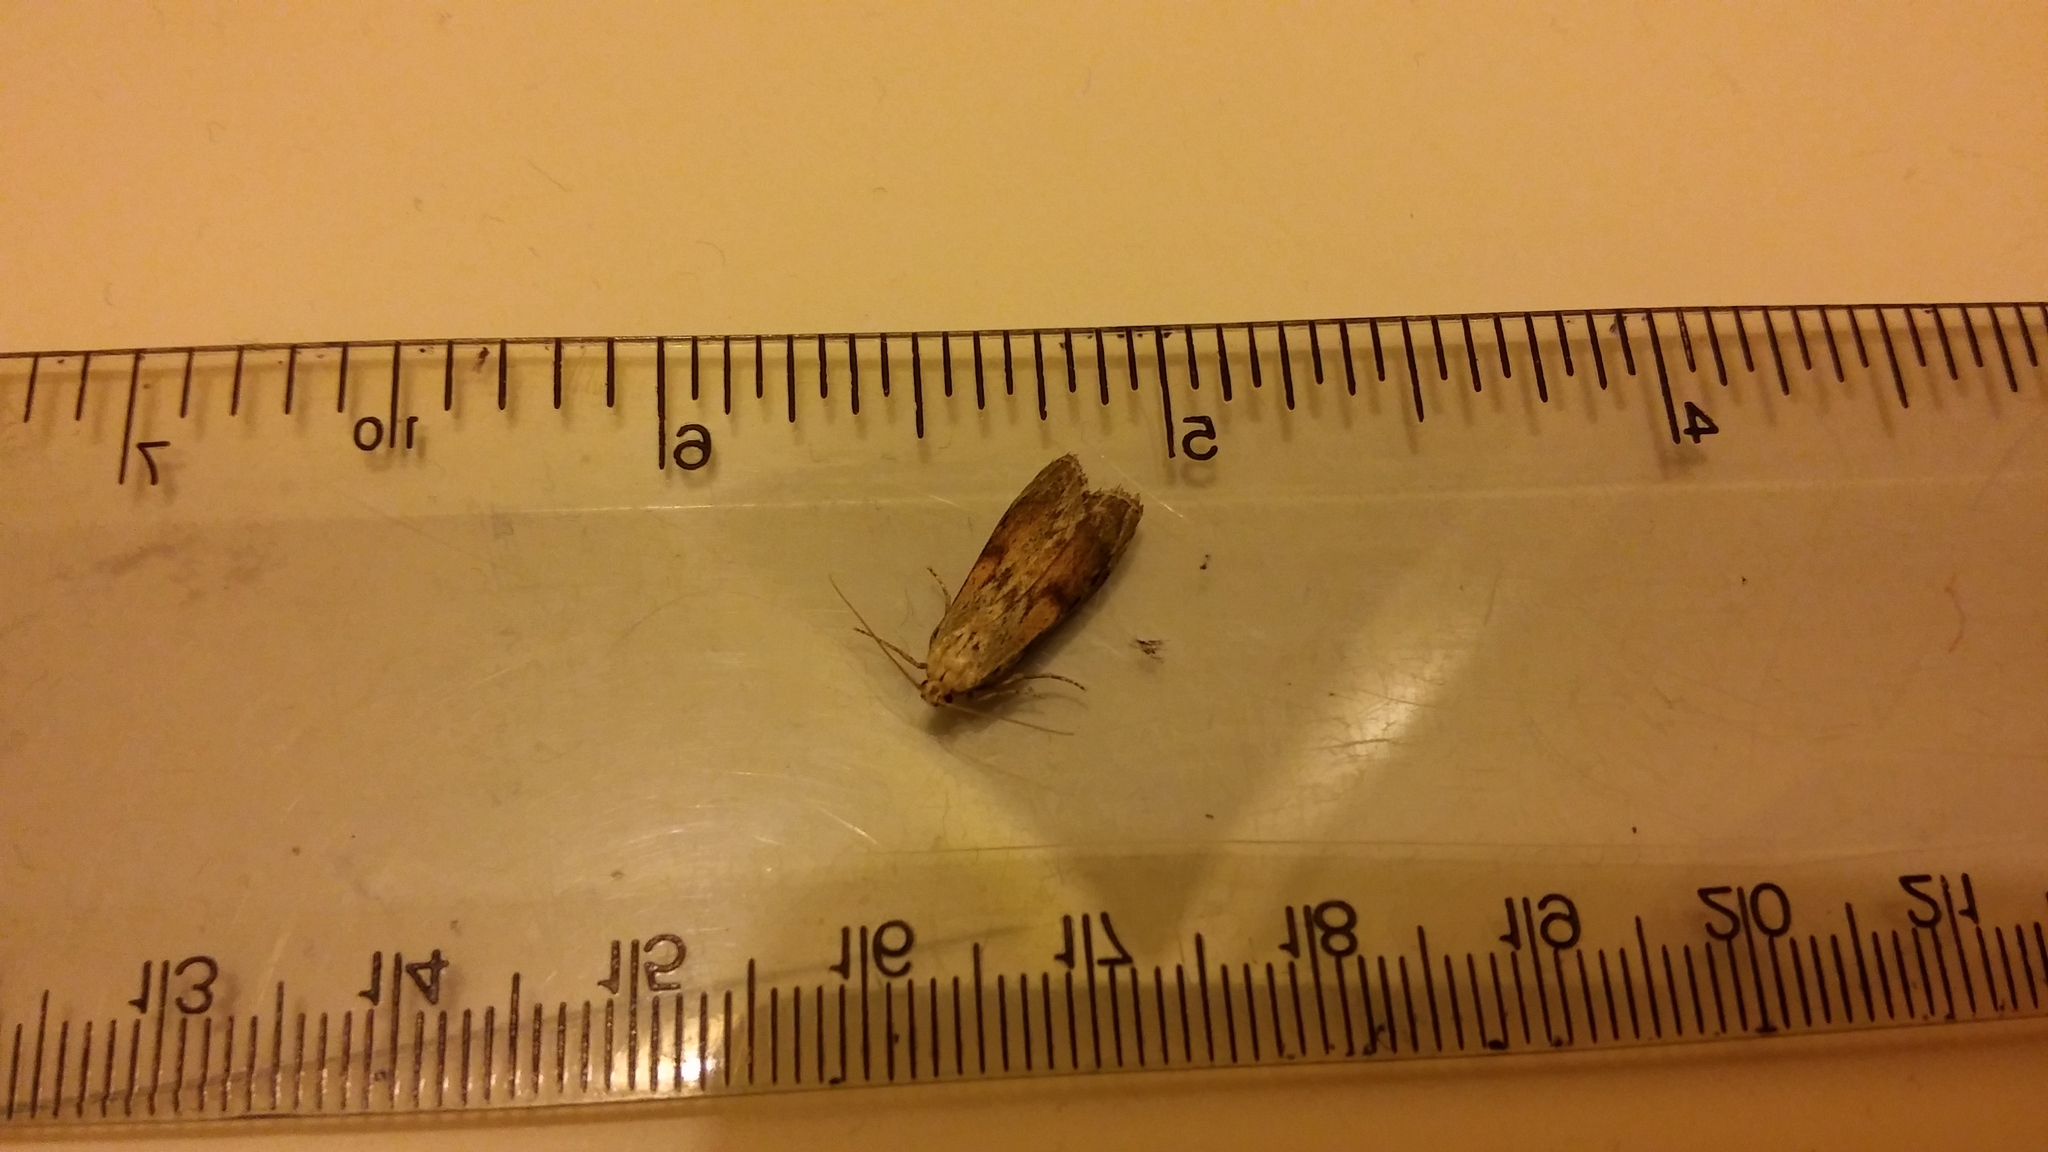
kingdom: Animalia
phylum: Arthropoda
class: Insecta
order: Lepidoptera
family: Pyralidae
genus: Aphomia
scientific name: Aphomia sociella
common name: Bee moth
